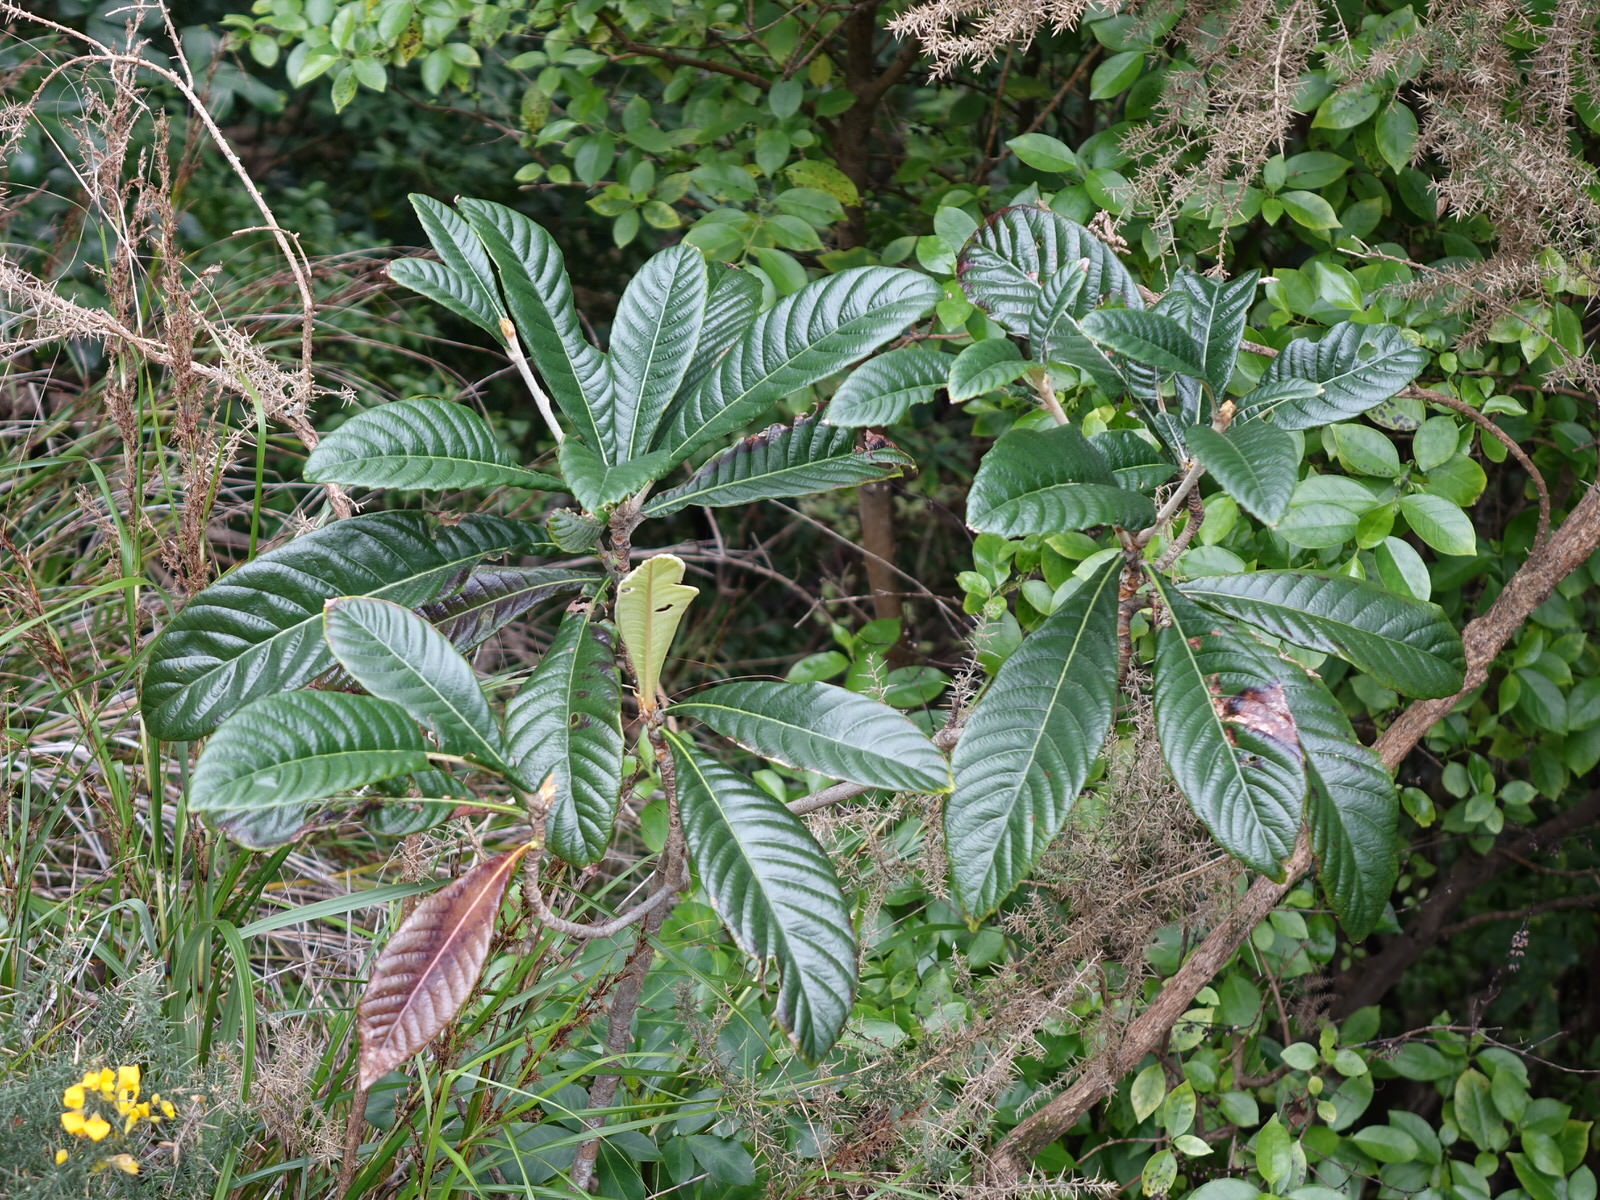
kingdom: Plantae
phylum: Tracheophyta
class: Magnoliopsida
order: Rosales
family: Rosaceae
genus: Rhaphiolepis
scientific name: Rhaphiolepis bibas
